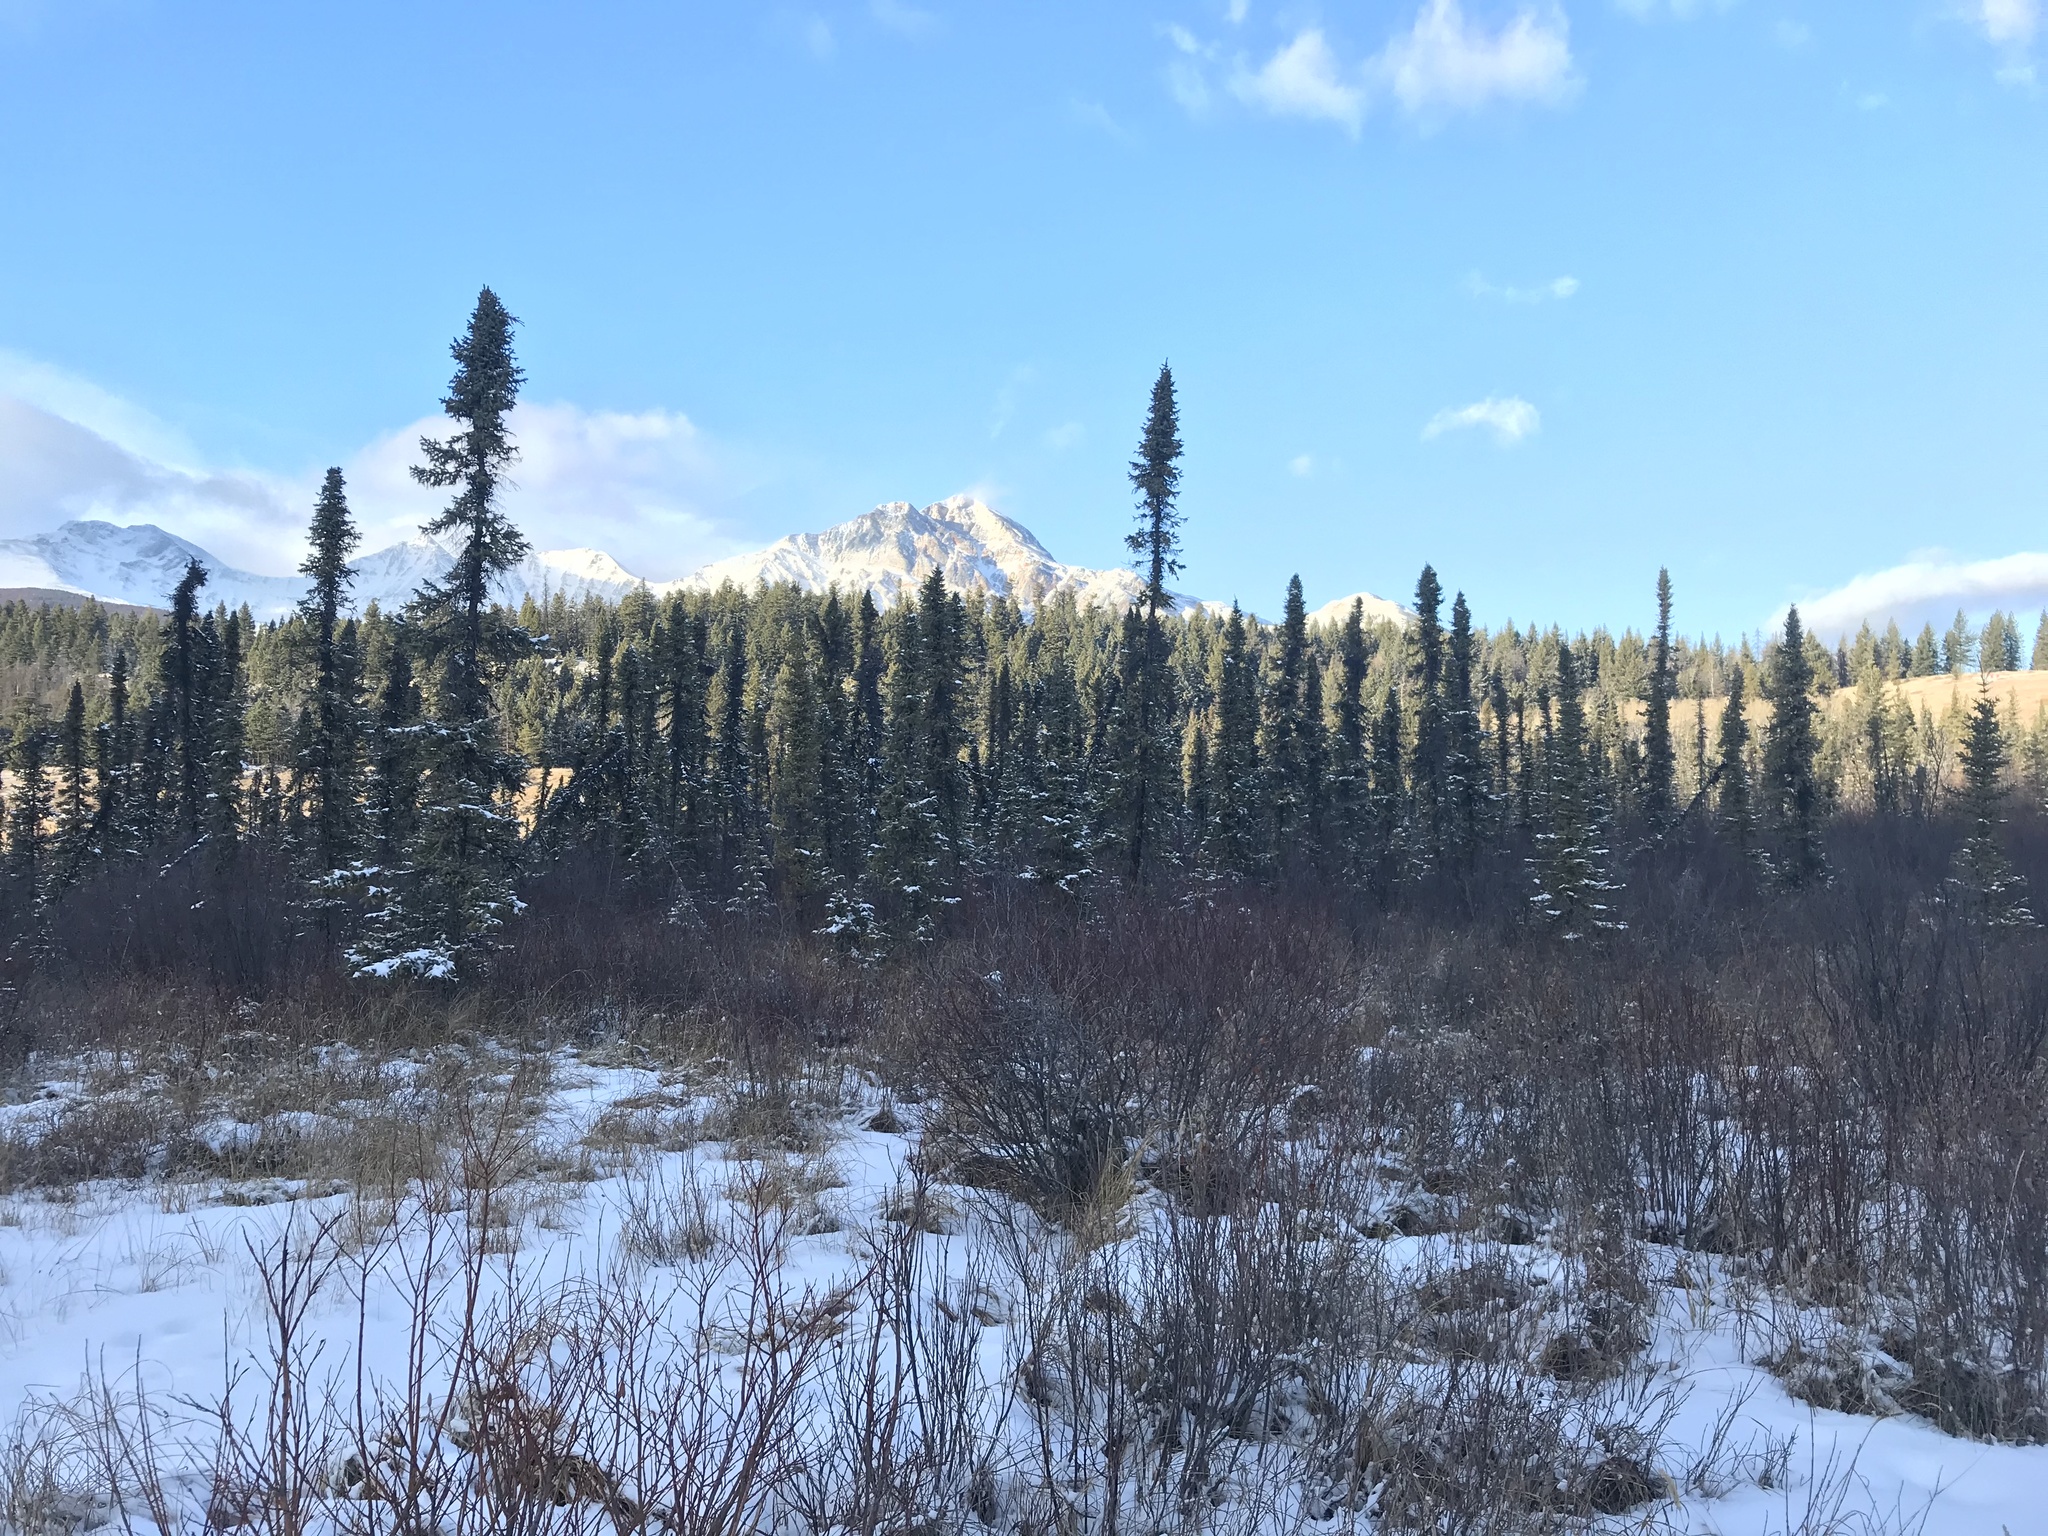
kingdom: Plantae
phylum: Tracheophyta
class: Pinopsida
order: Pinales
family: Pinaceae
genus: Picea
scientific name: Picea mariana
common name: Black spruce
